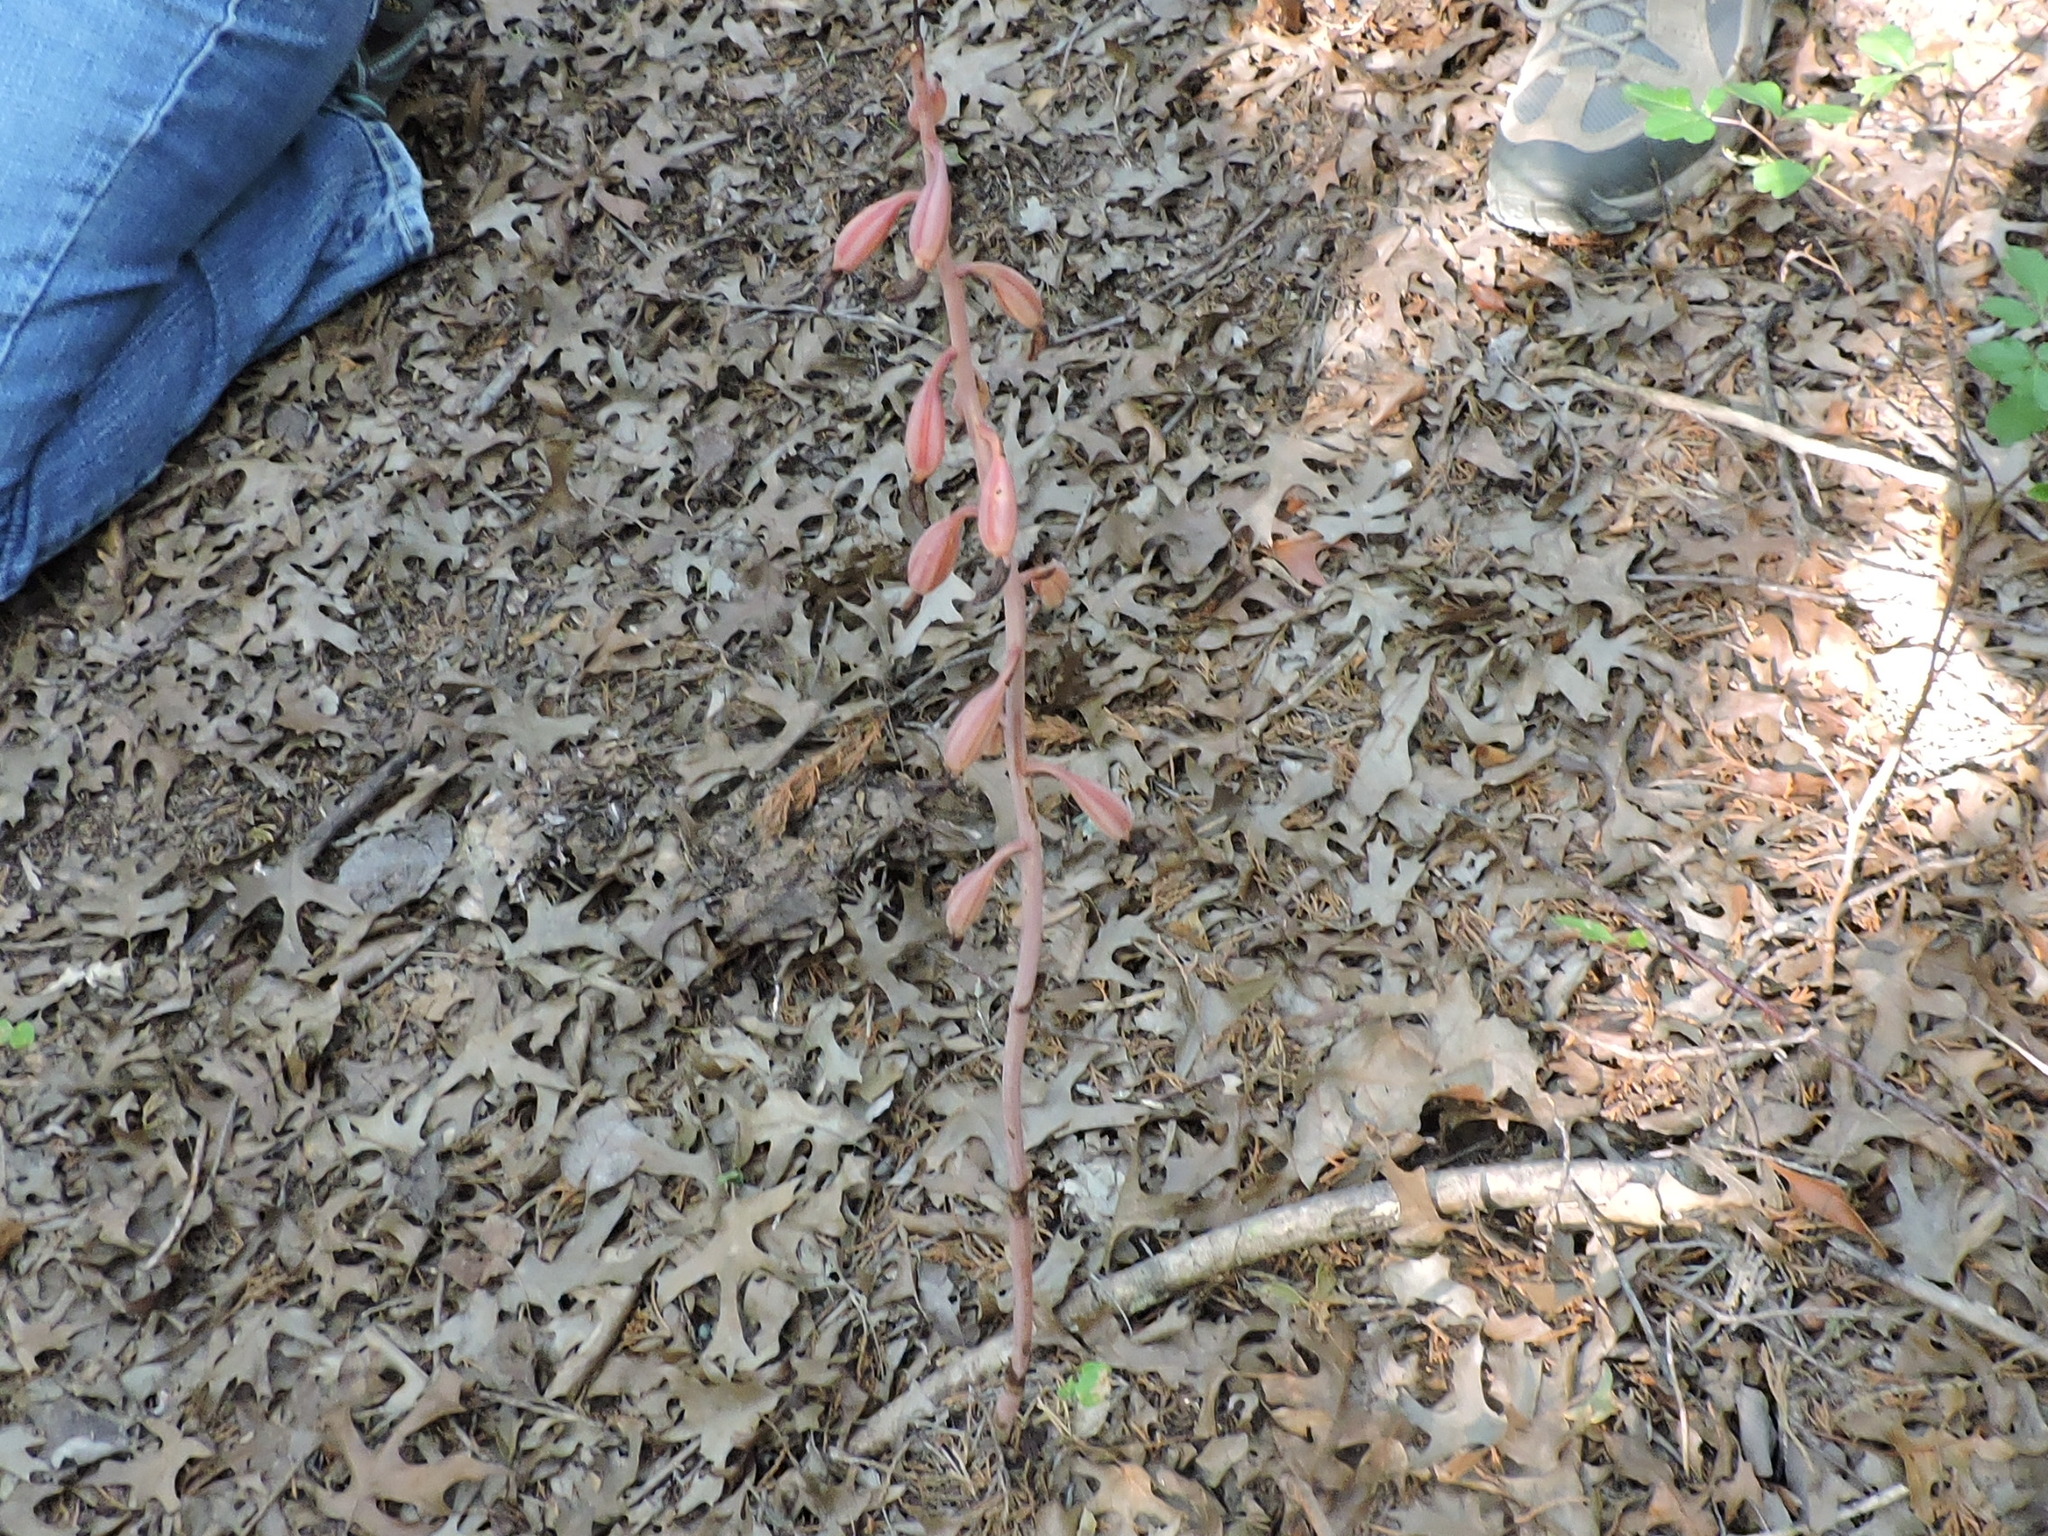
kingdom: Plantae
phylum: Tracheophyta
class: Liliopsida
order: Asparagales
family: Orchidaceae
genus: Bletia
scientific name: Bletia arizonica
